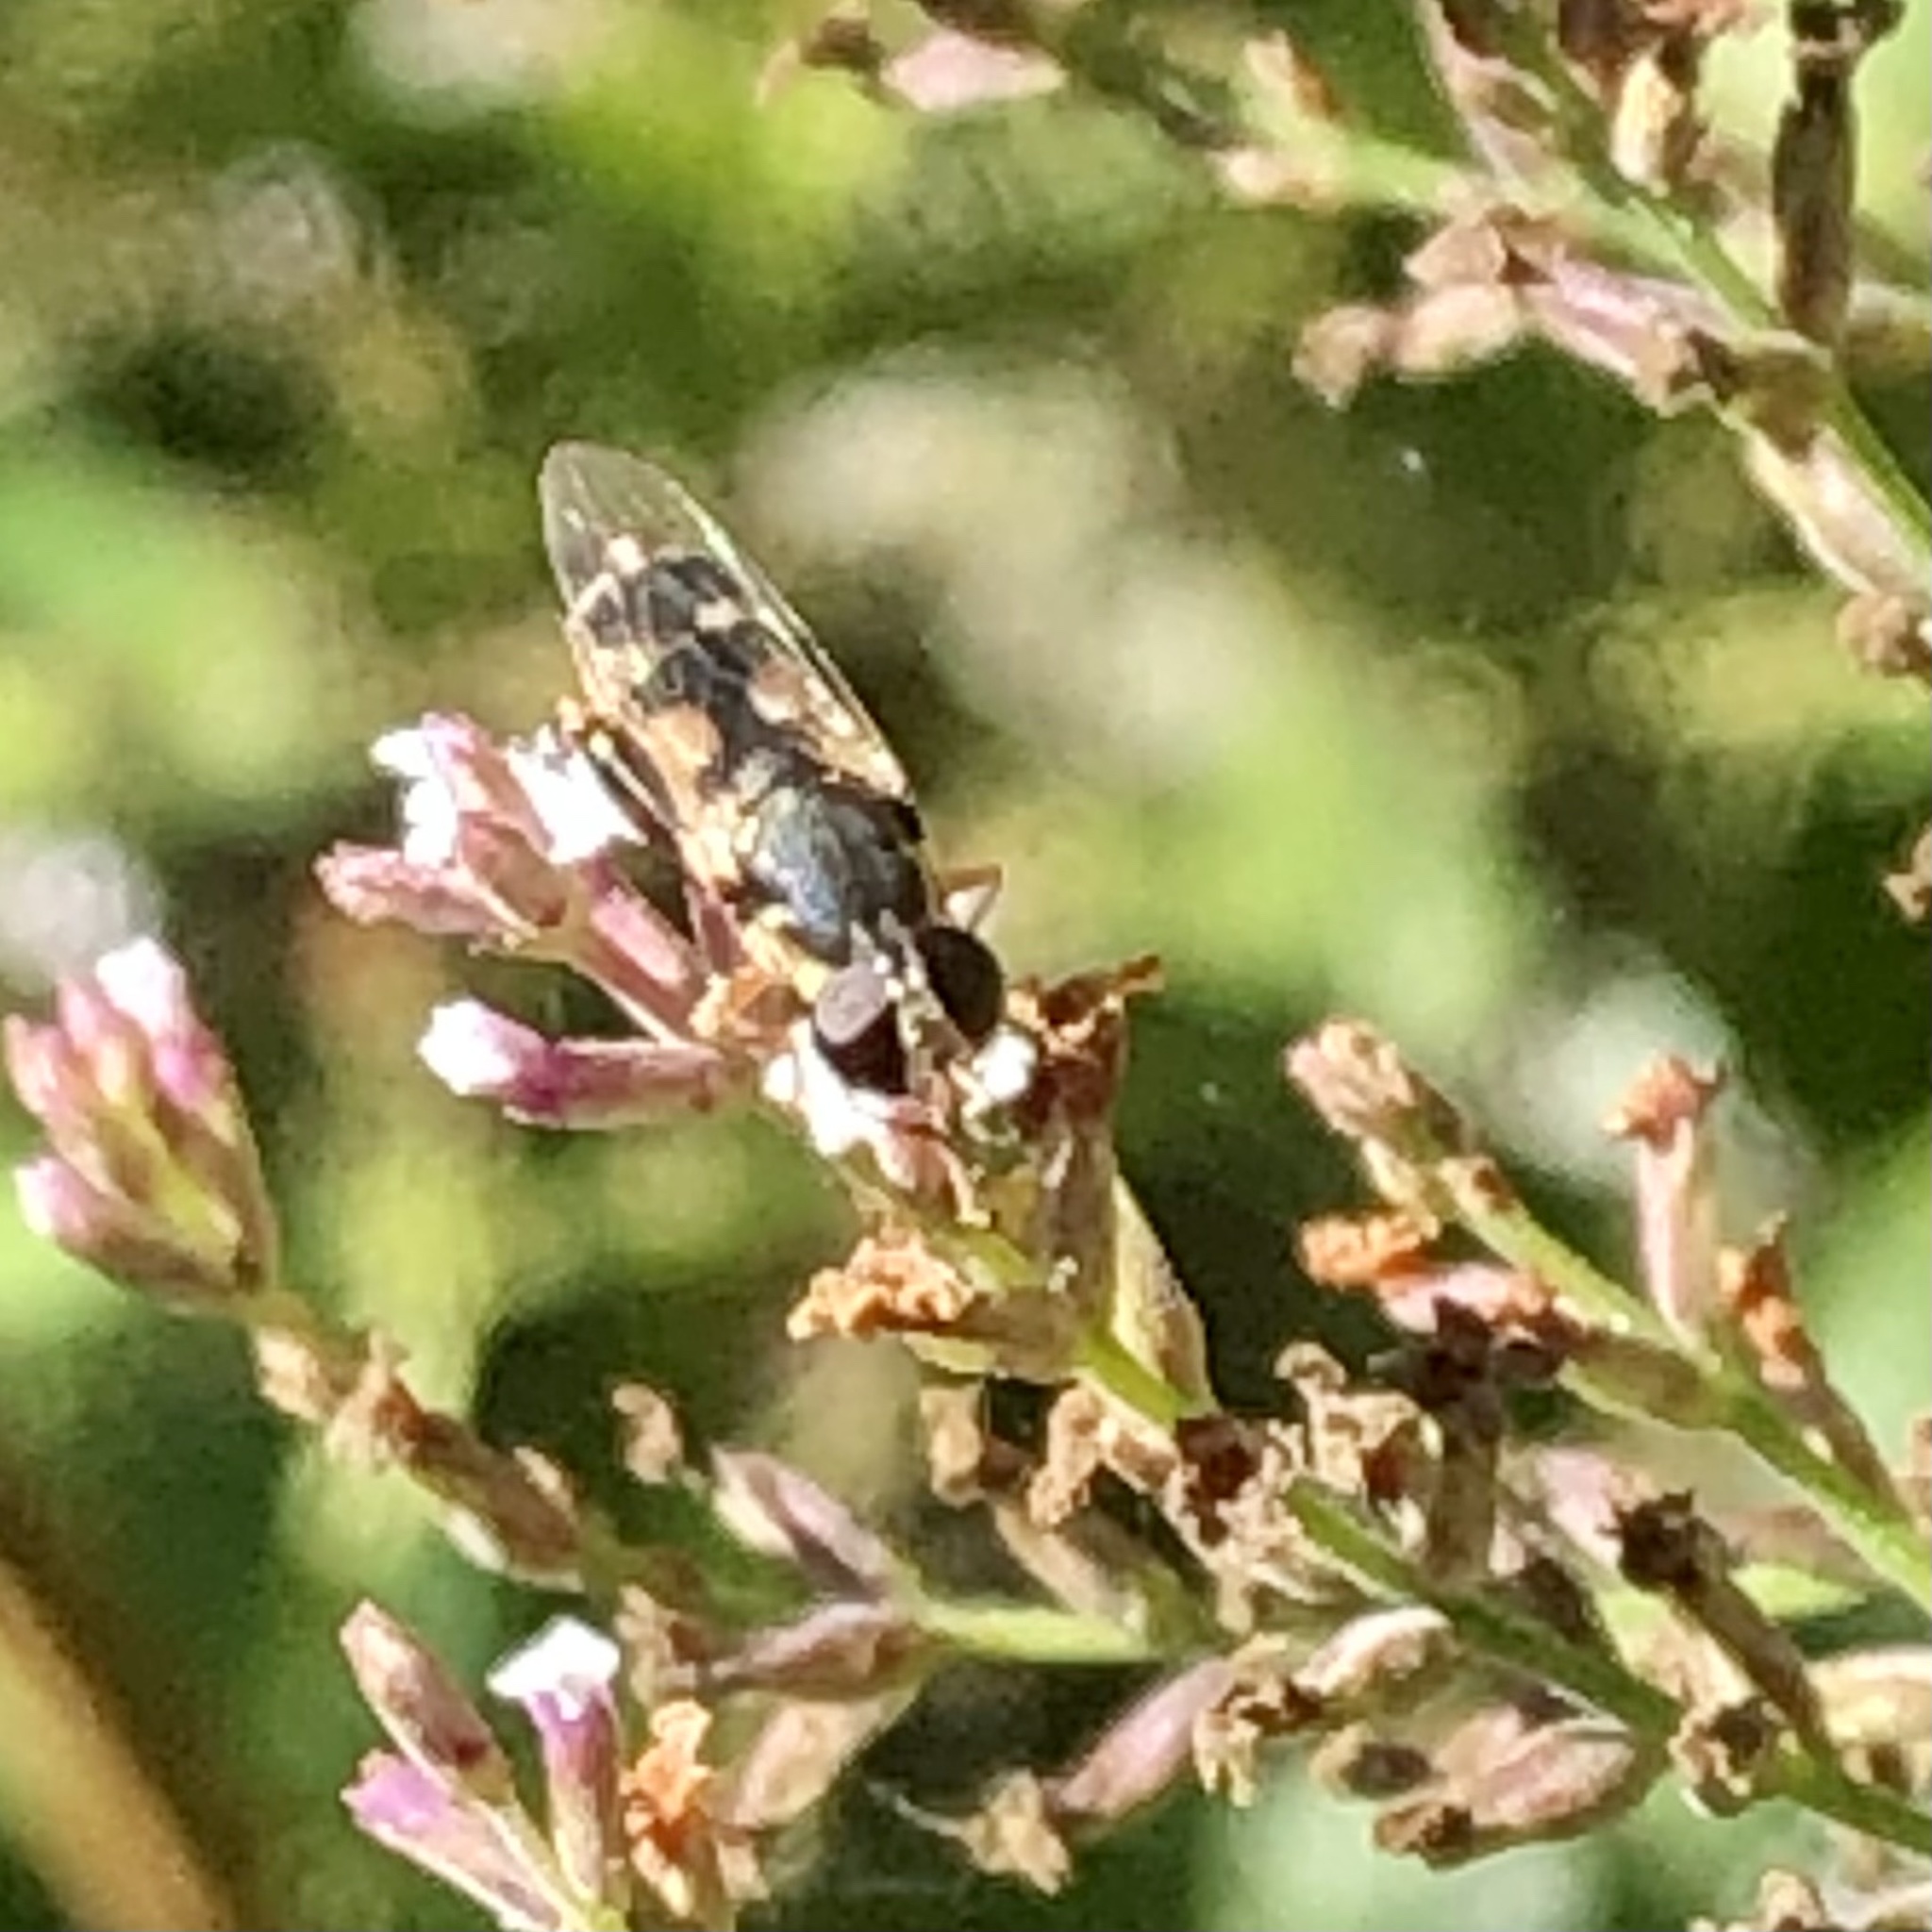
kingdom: Animalia
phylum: Arthropoda
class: Insecta
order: Diptera
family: Syrphidae
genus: Syritta
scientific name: Syritta pipiens
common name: Hover fly
